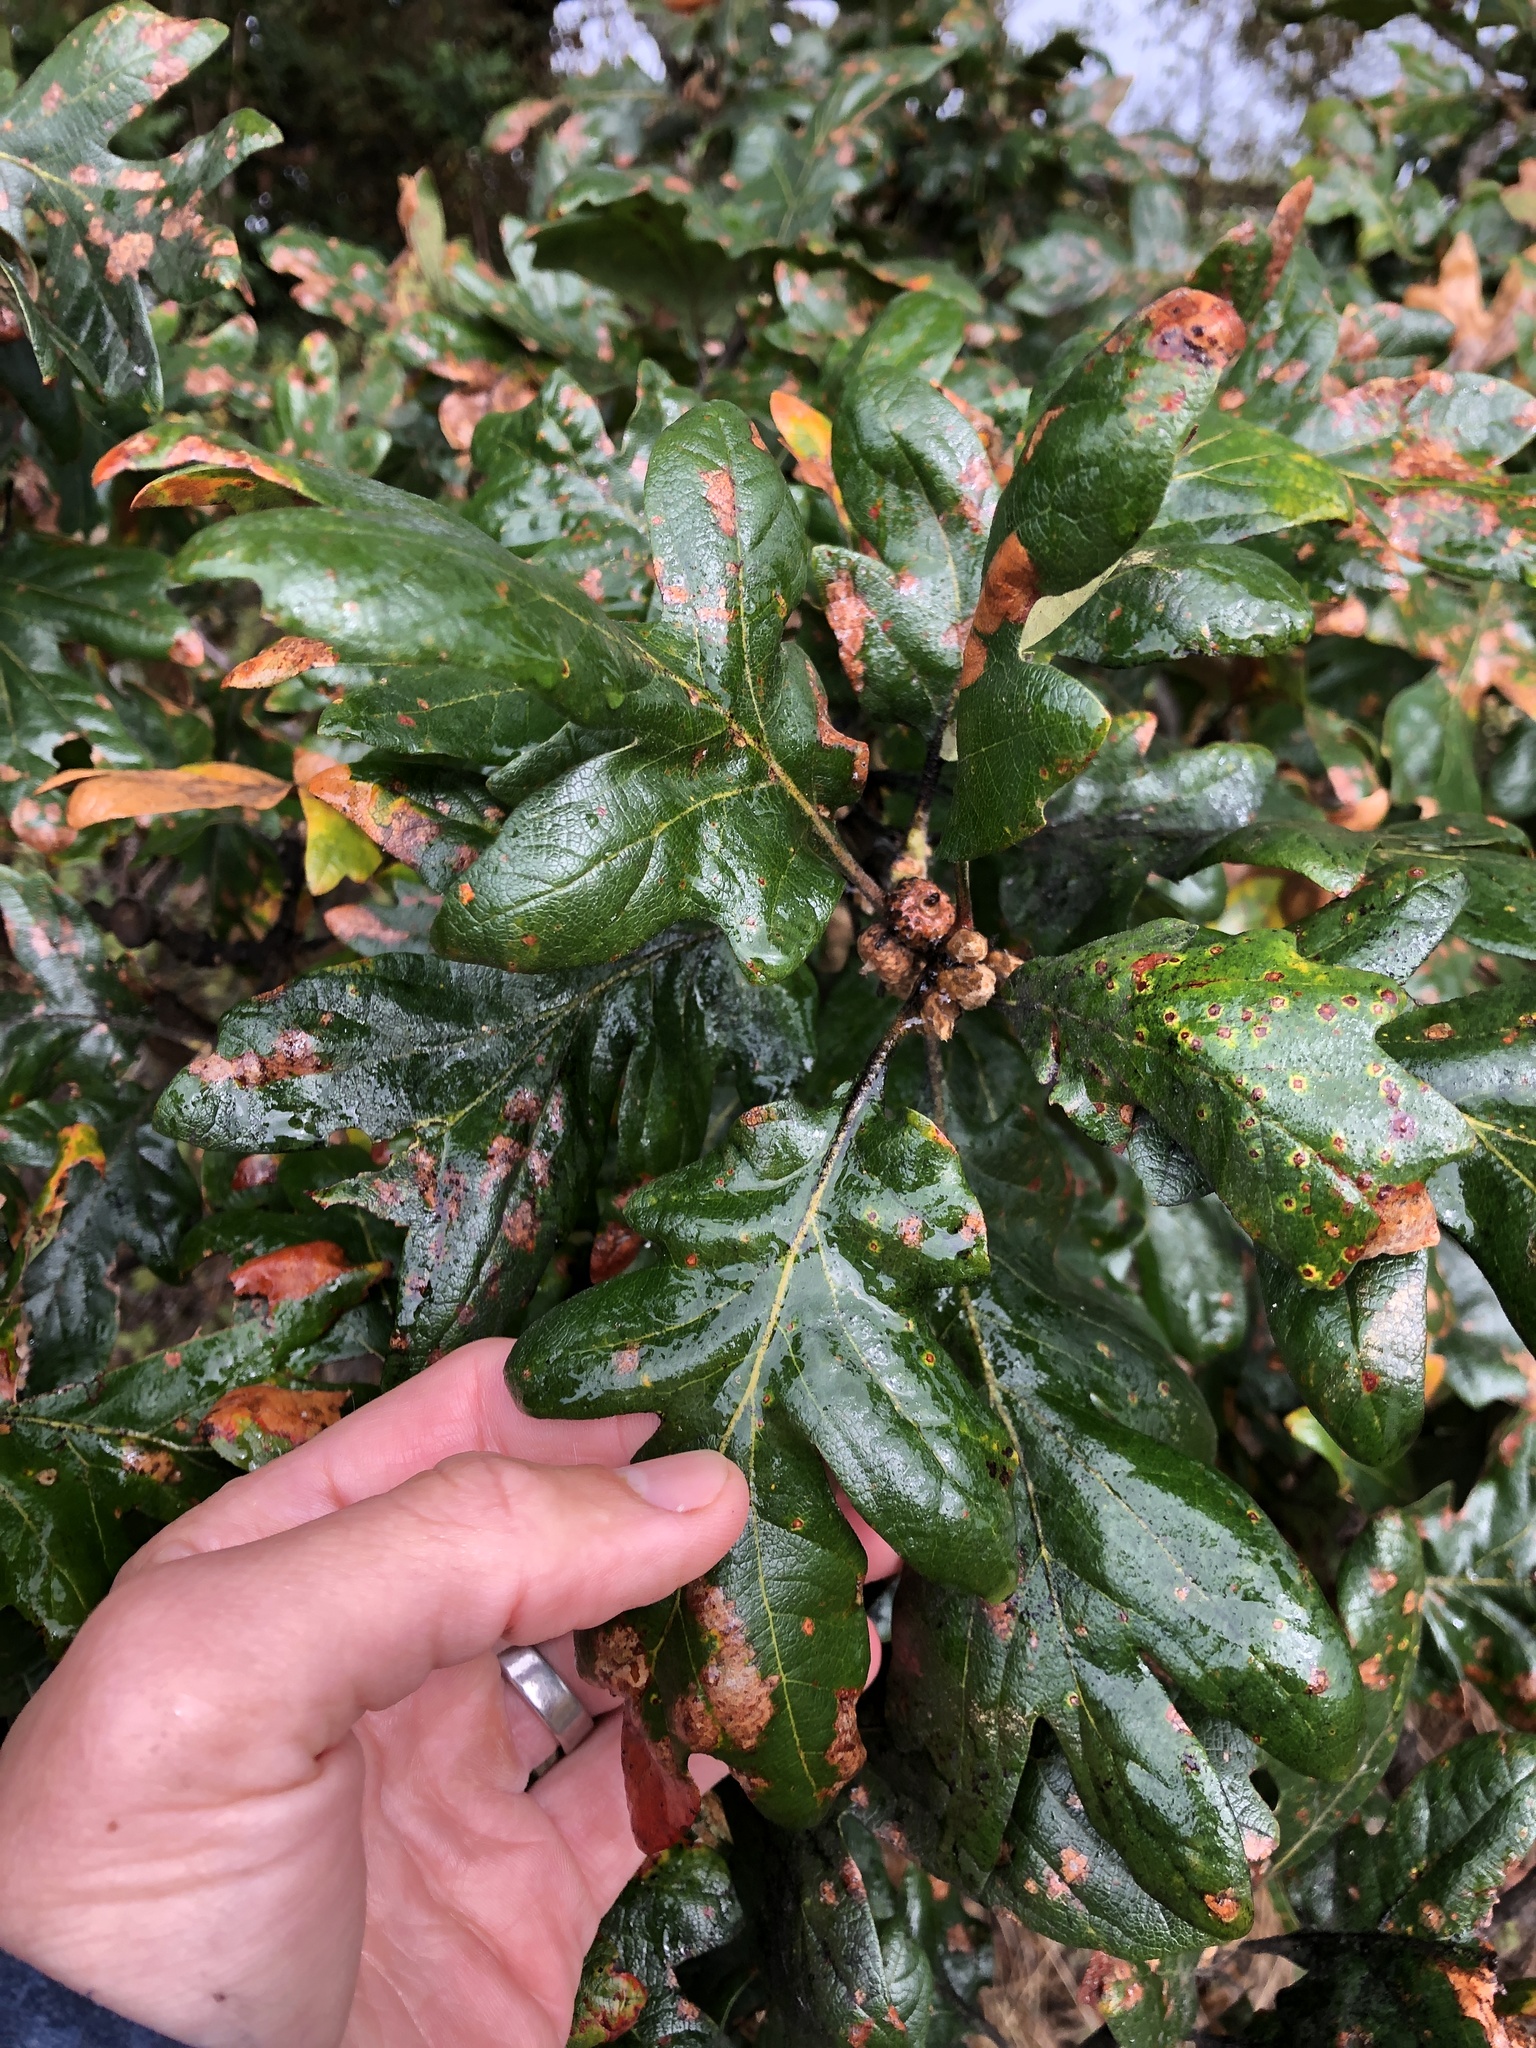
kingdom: Plantae
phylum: Tracheophyta
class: Magnoliopsida
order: Fagales
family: Fagaceae
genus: Quercus
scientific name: Quercus garryana
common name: Garry oak
